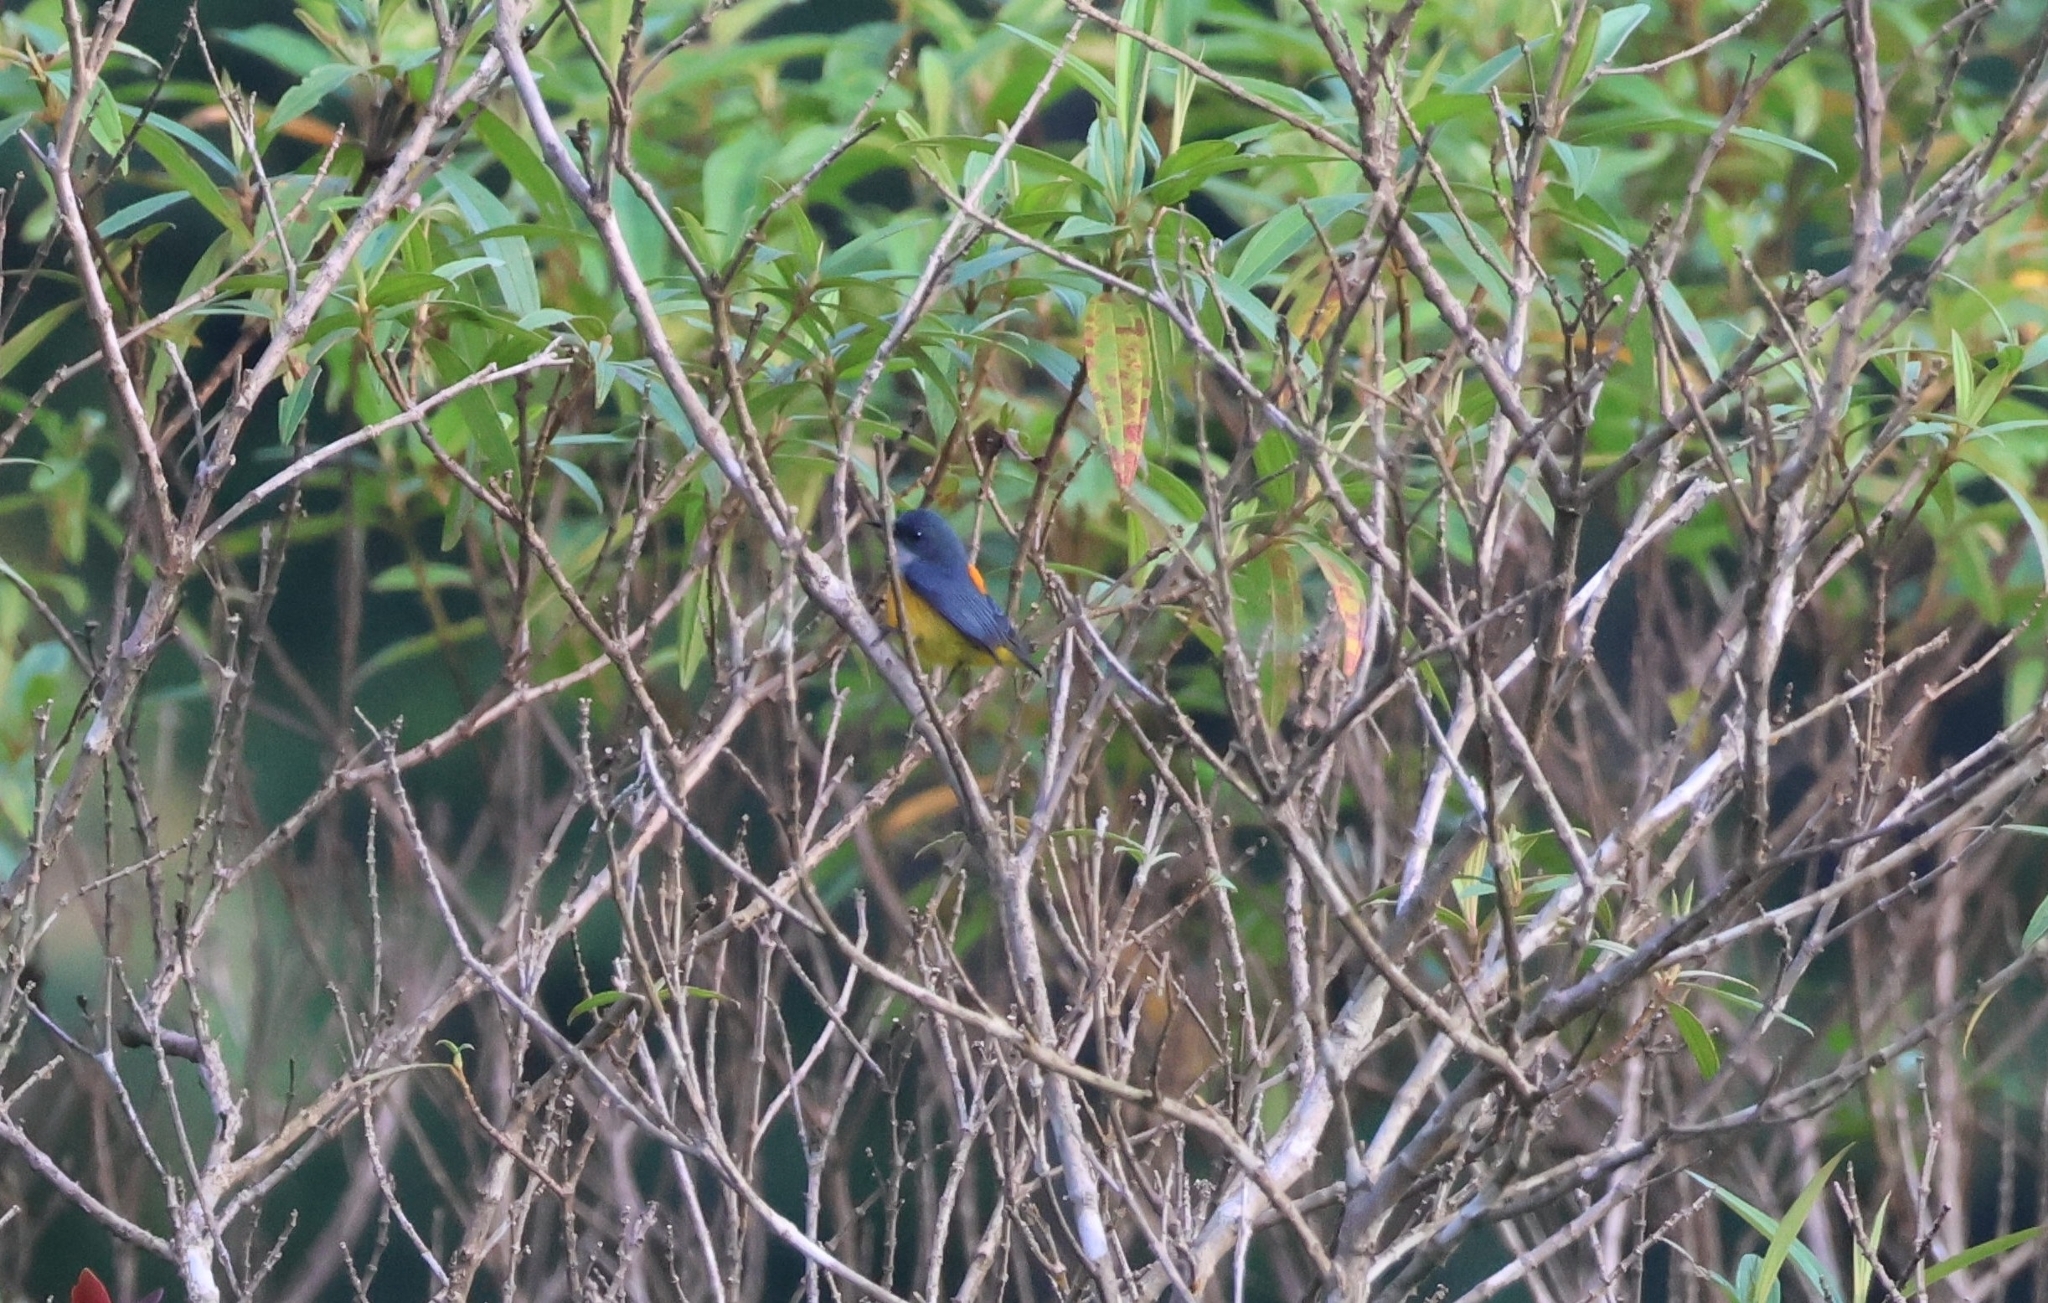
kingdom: Animalia
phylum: Chordata
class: Aves
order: Passeriformes
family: Dicaeidae
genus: Dicaeum
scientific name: Dicaeum trigonostigma
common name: Orange-bellied flowerpecker
